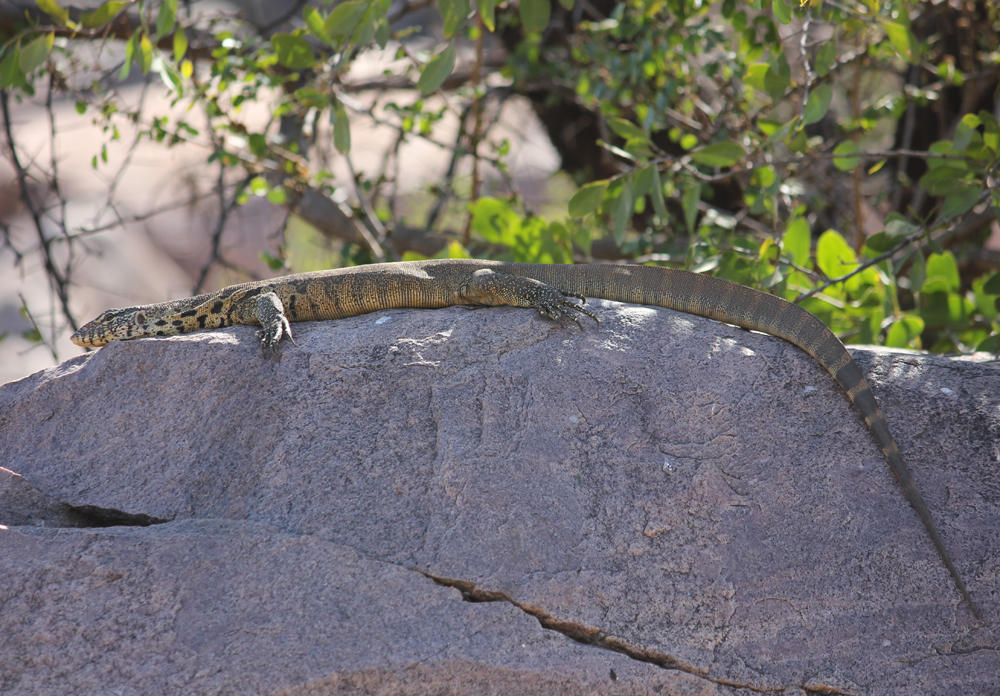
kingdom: Animalia
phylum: Chordata
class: Squamata
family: Varanidae
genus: Varanus
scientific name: Varanus niloticus
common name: Nile monitor
